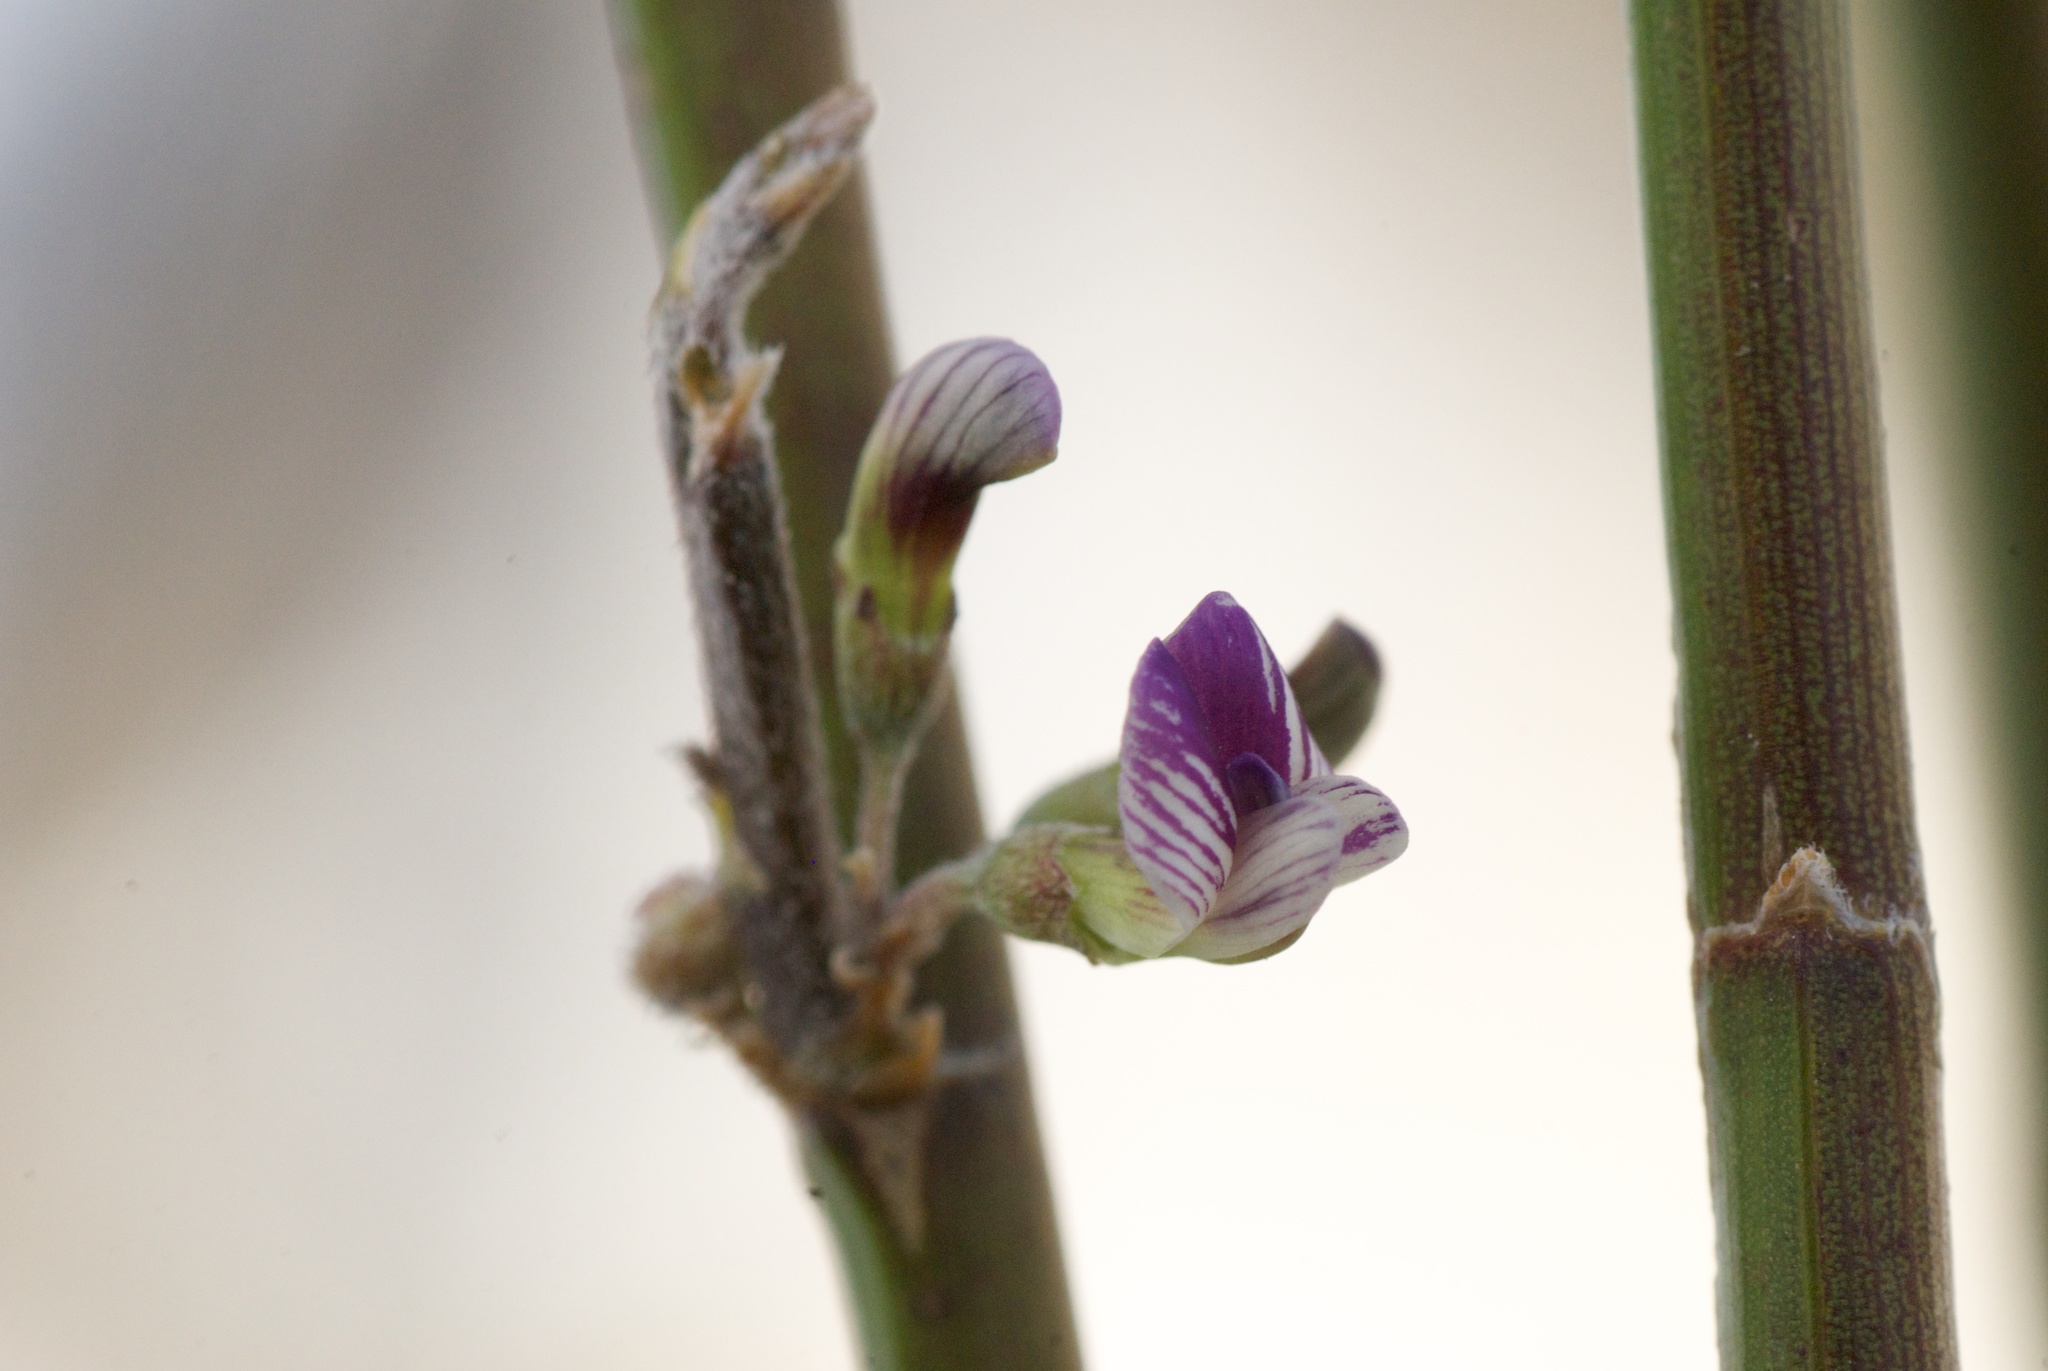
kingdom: Plantae
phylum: Tracheophyta
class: Magnoliopsida
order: Fabales
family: Fabaceae
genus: Carmichaelia
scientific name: Carmichaelia australis
